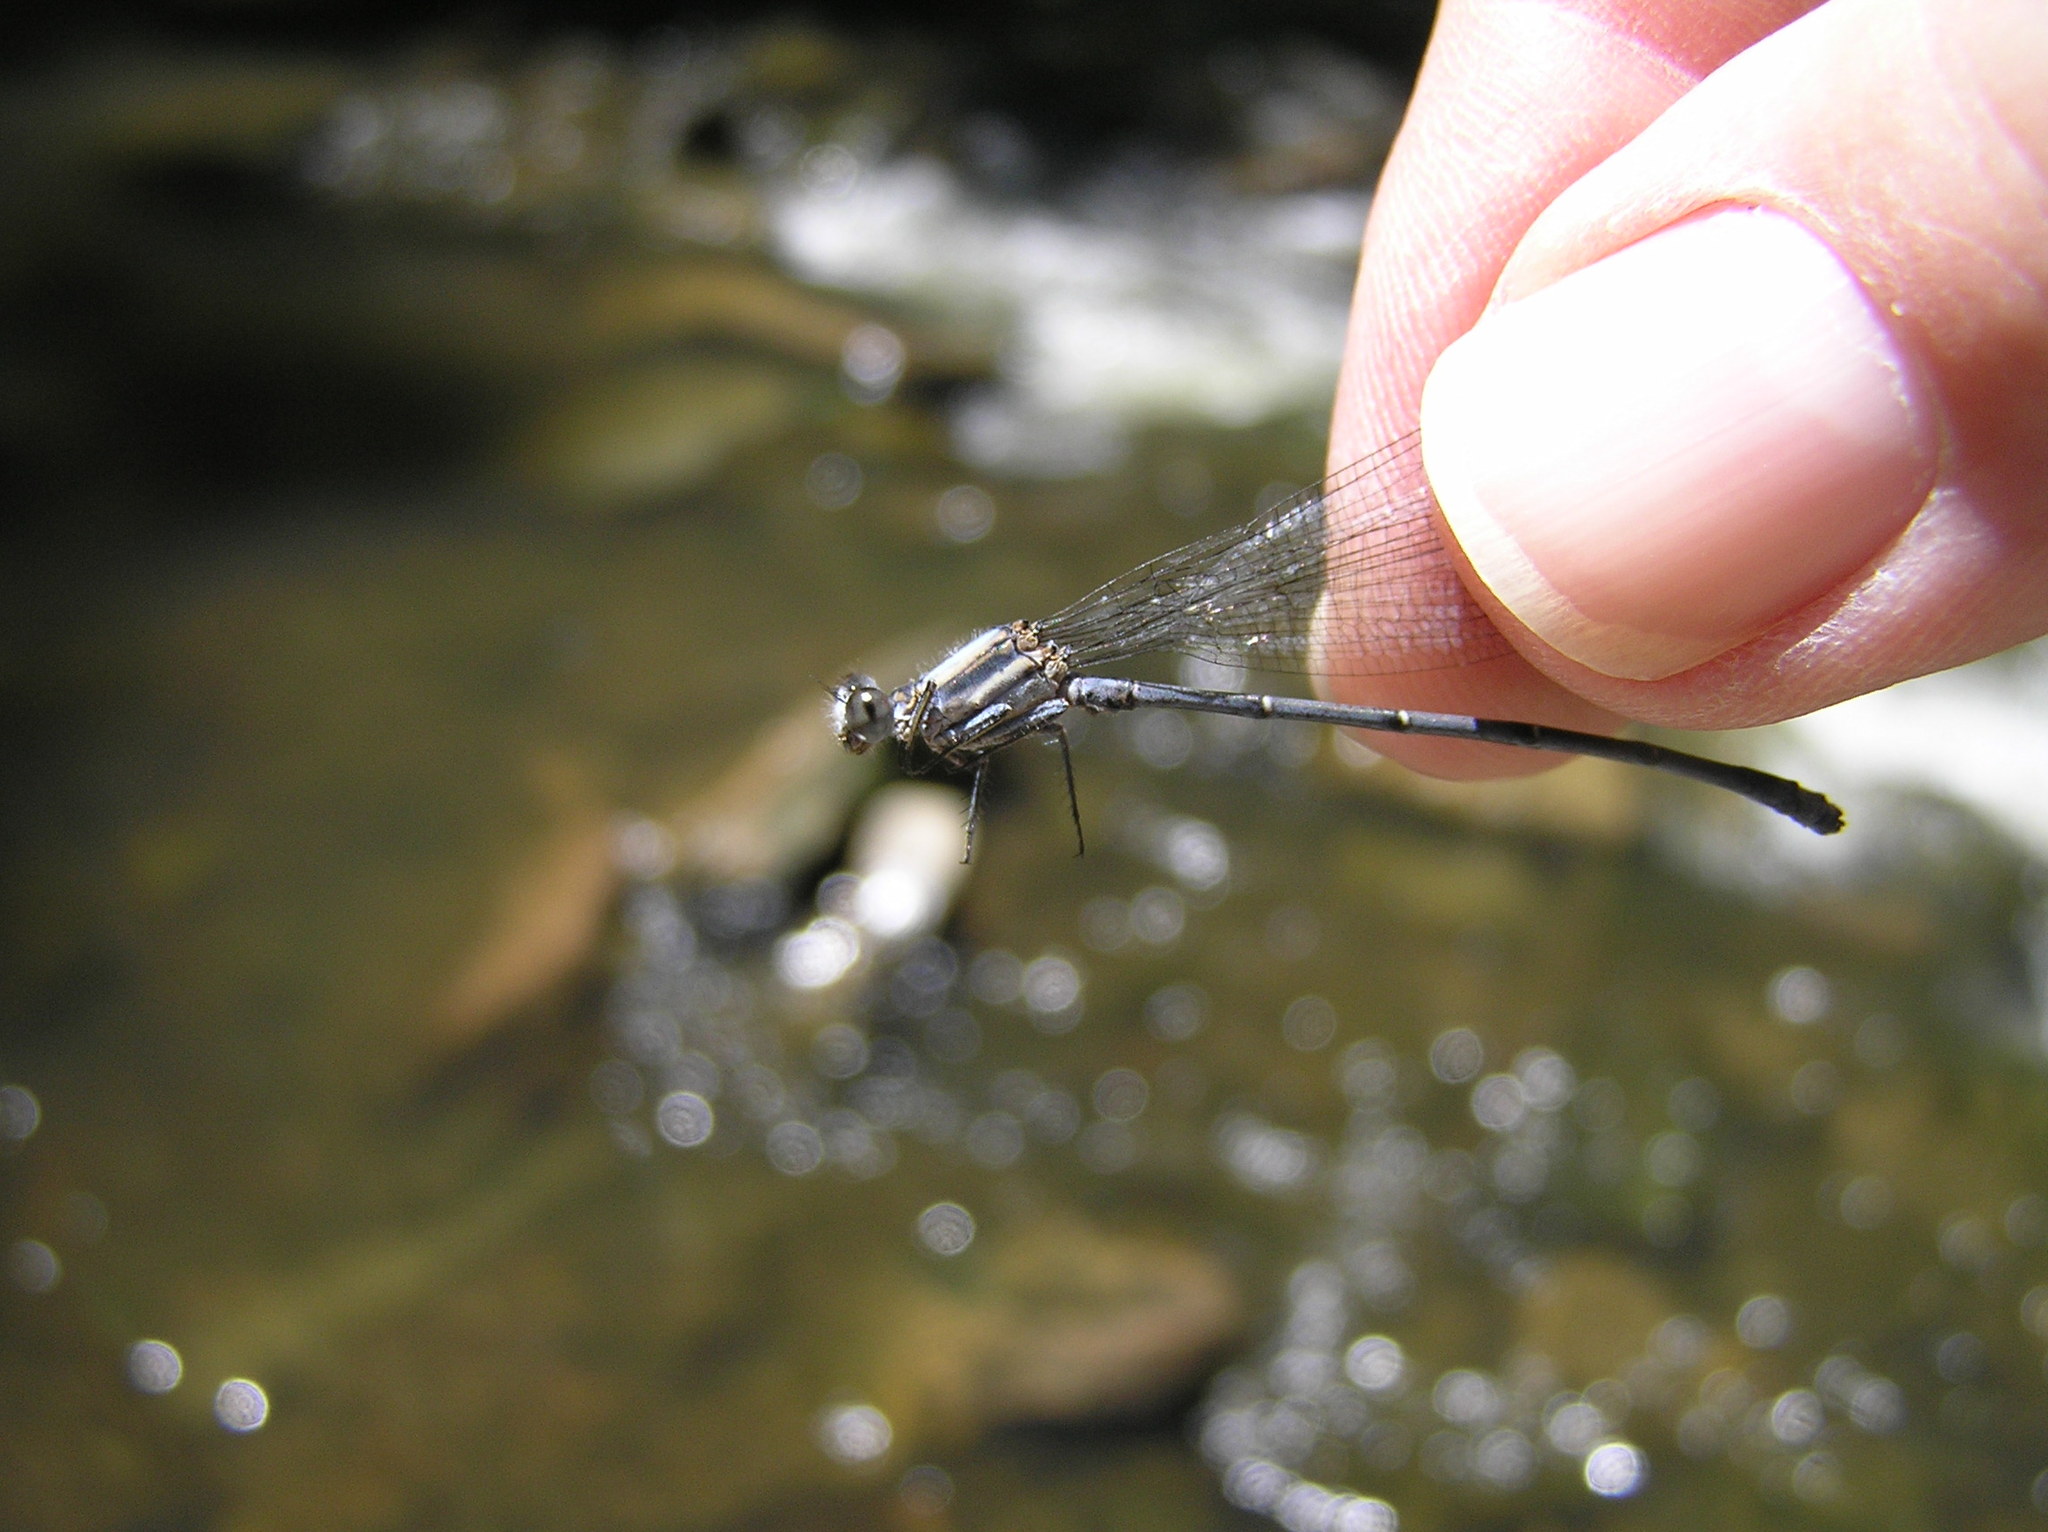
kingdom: Animalia
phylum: Arthropoda
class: Insecta
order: Odonata
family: Coenagrionidae
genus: Argia
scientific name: Argia moesta
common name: Powdered dancer
